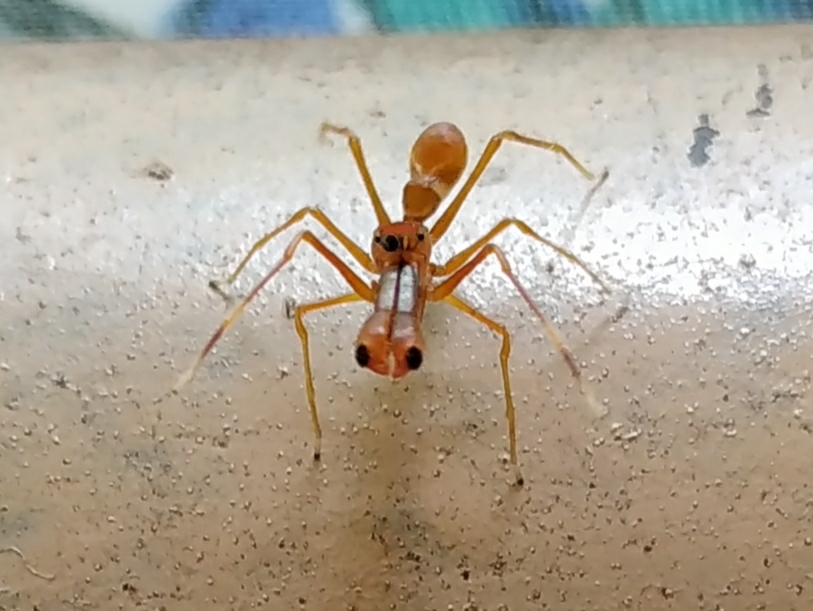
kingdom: Animalia
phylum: Arthropoda
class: Arachnida
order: Araneae
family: Salticidae
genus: Myrmaplata
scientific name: Myrmaplata plataleoides
